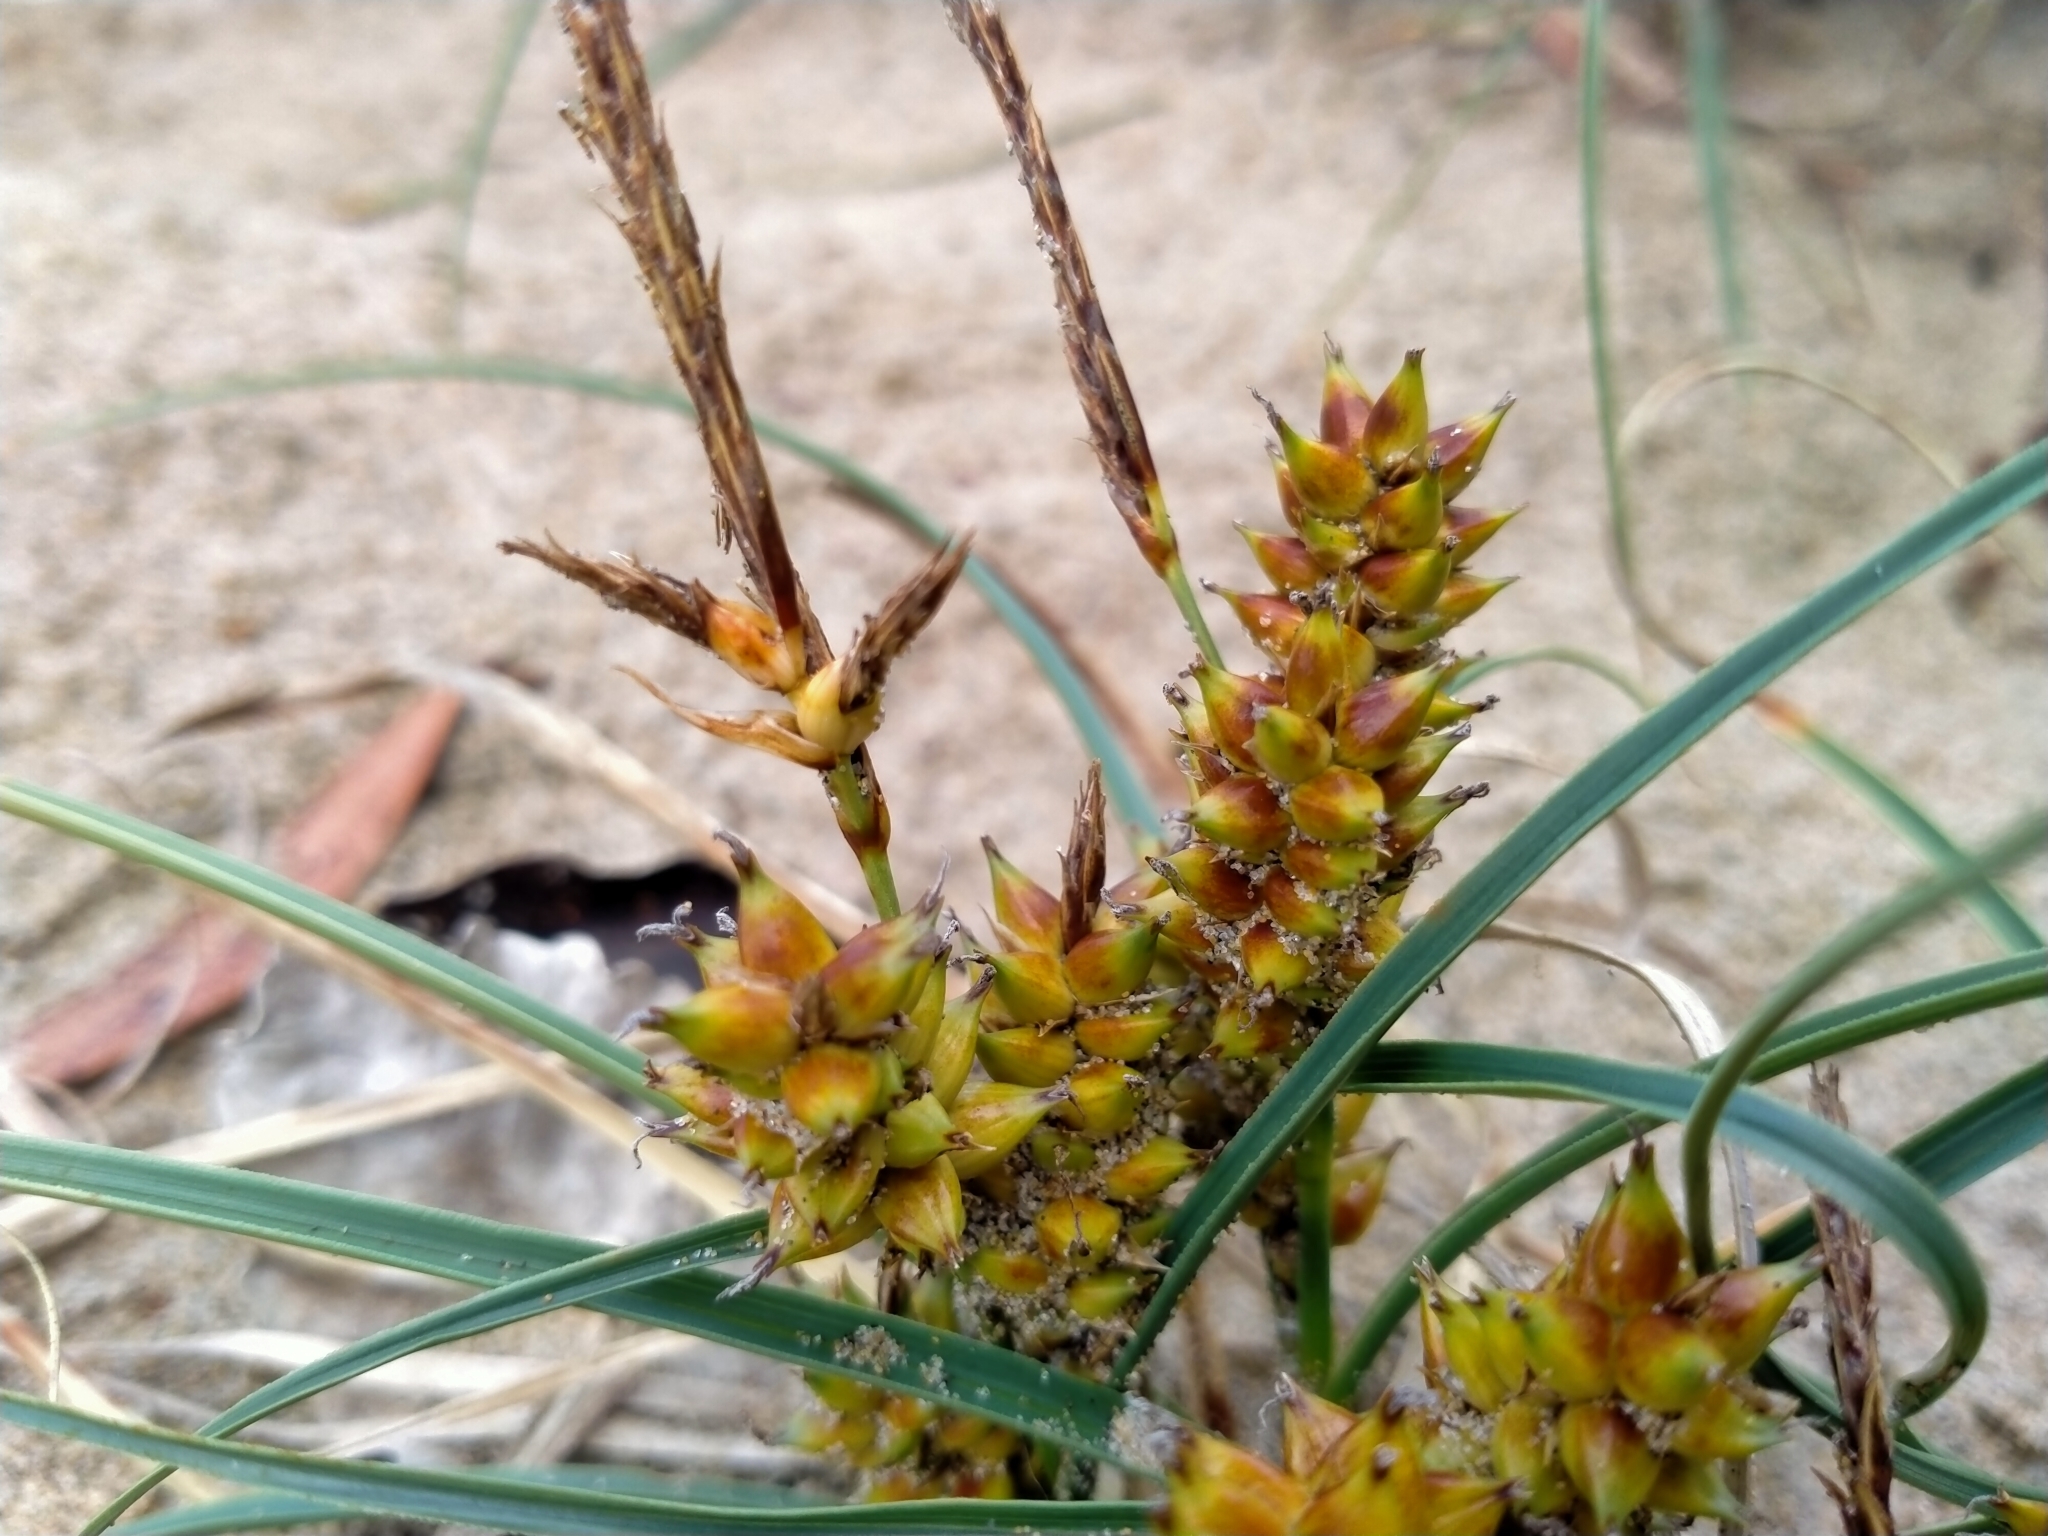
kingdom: Plantae
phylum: Tracheophyta
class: Liliopsida
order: Poales
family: Cyperaceae
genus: Carex
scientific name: Carex pumila
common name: Dwarf sedge
